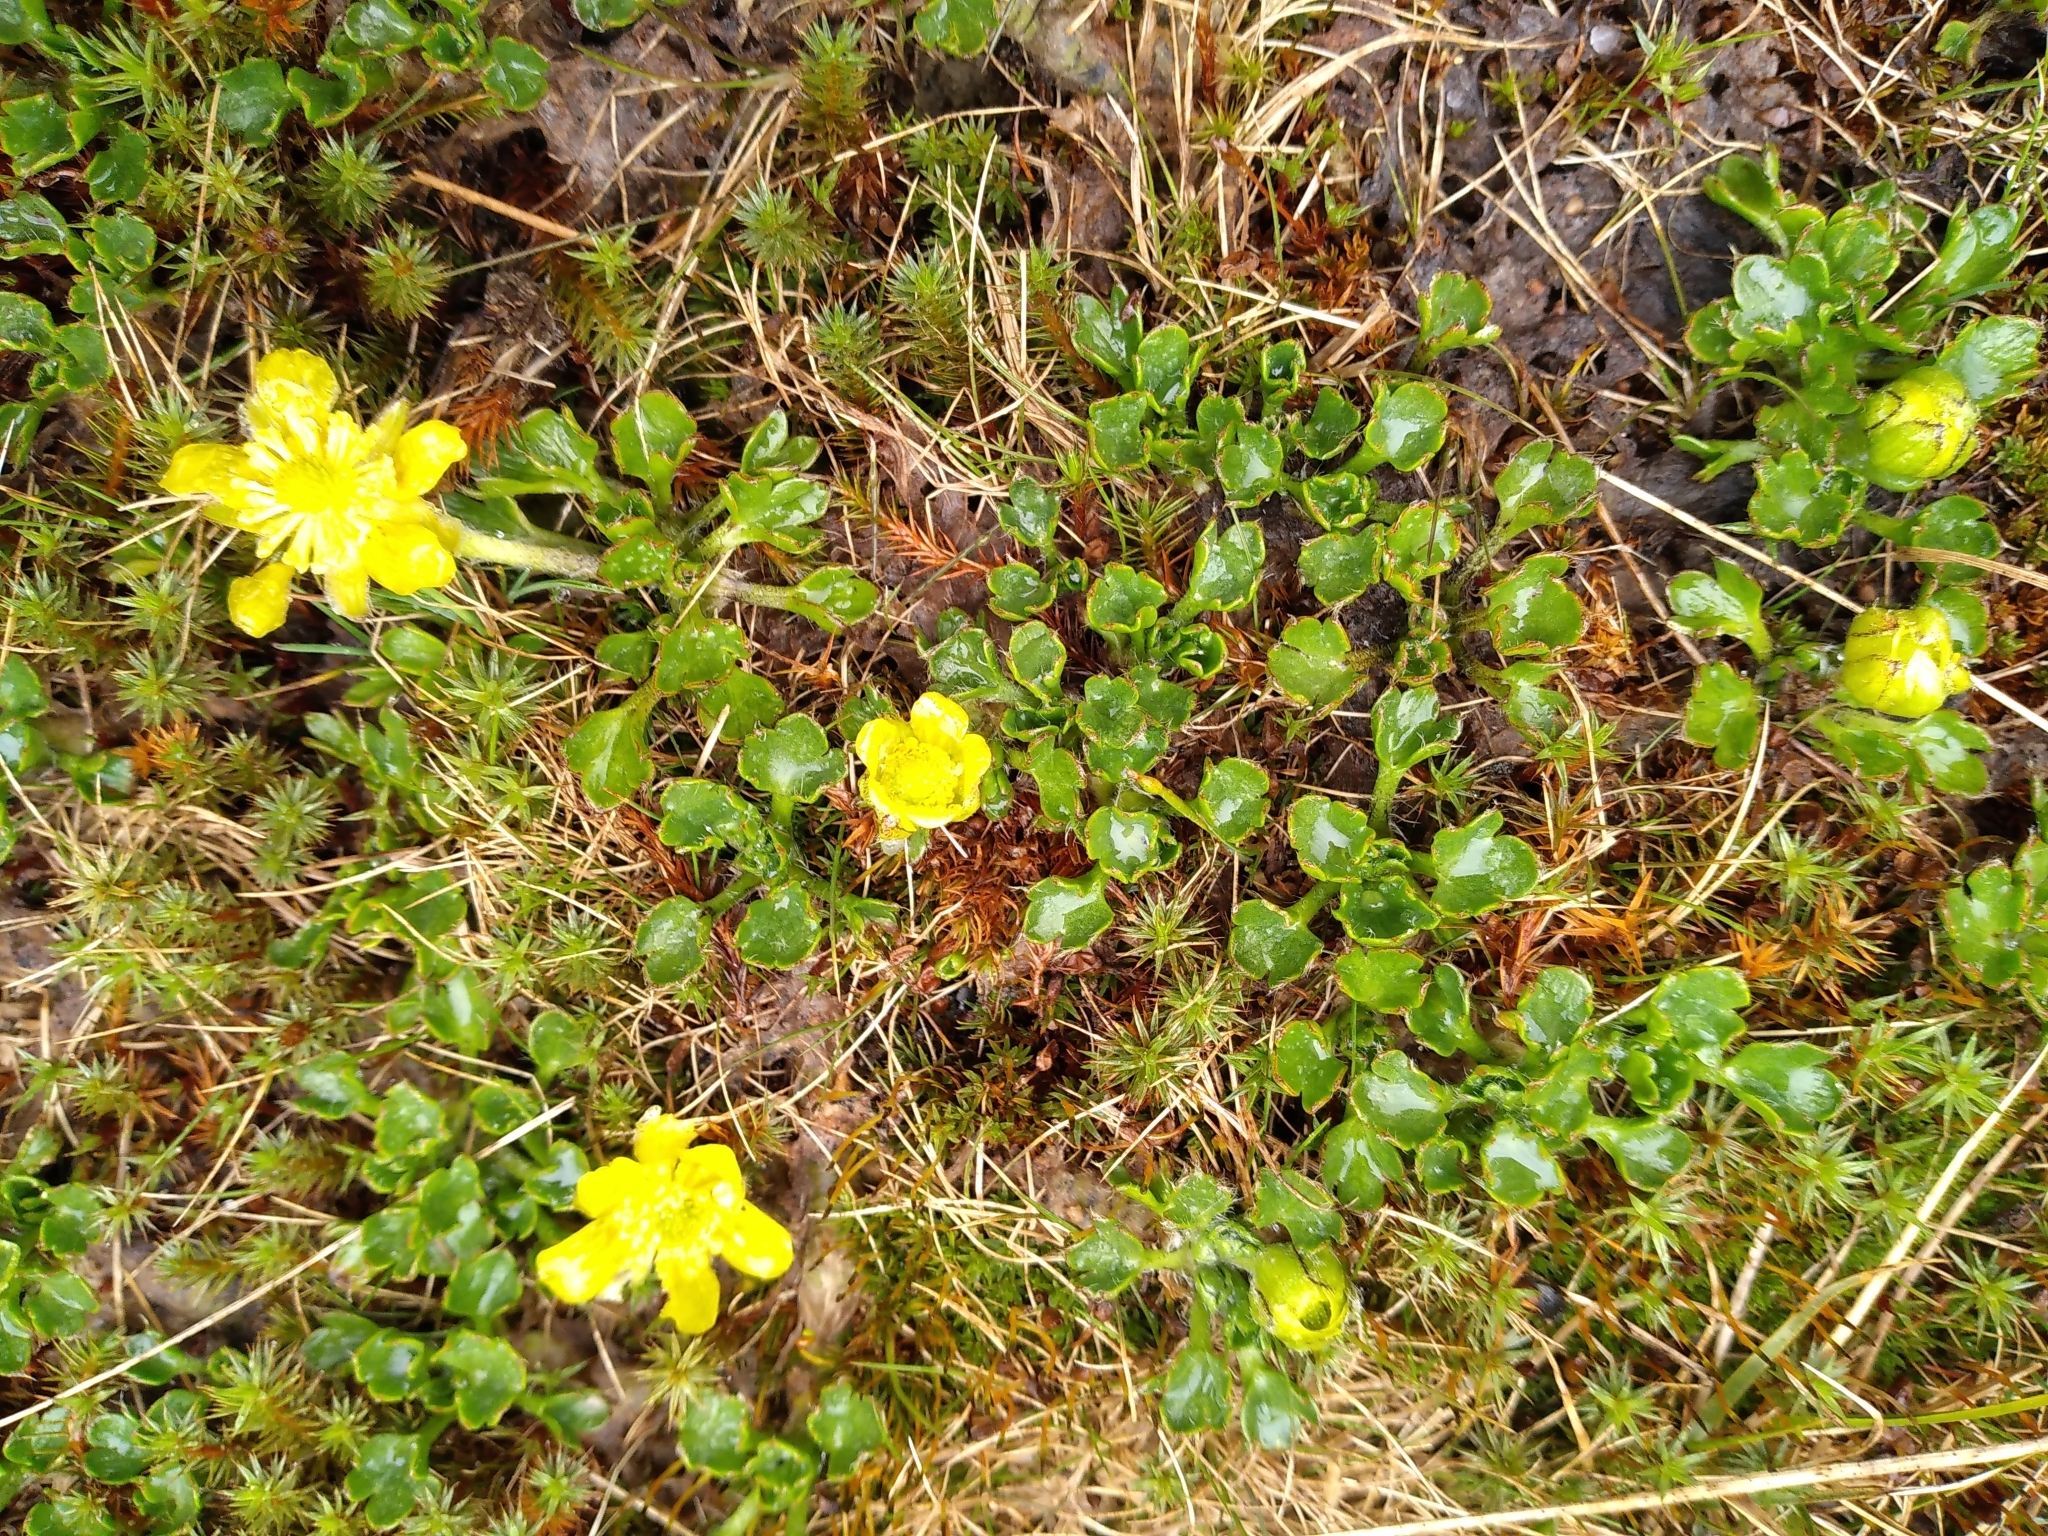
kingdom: Plantae
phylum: Tracheophyta
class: Magnoliopsida
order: Ranunculales
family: Ranunculaceae
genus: Ranunculus
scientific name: Ranunculus pachyrrhizus
